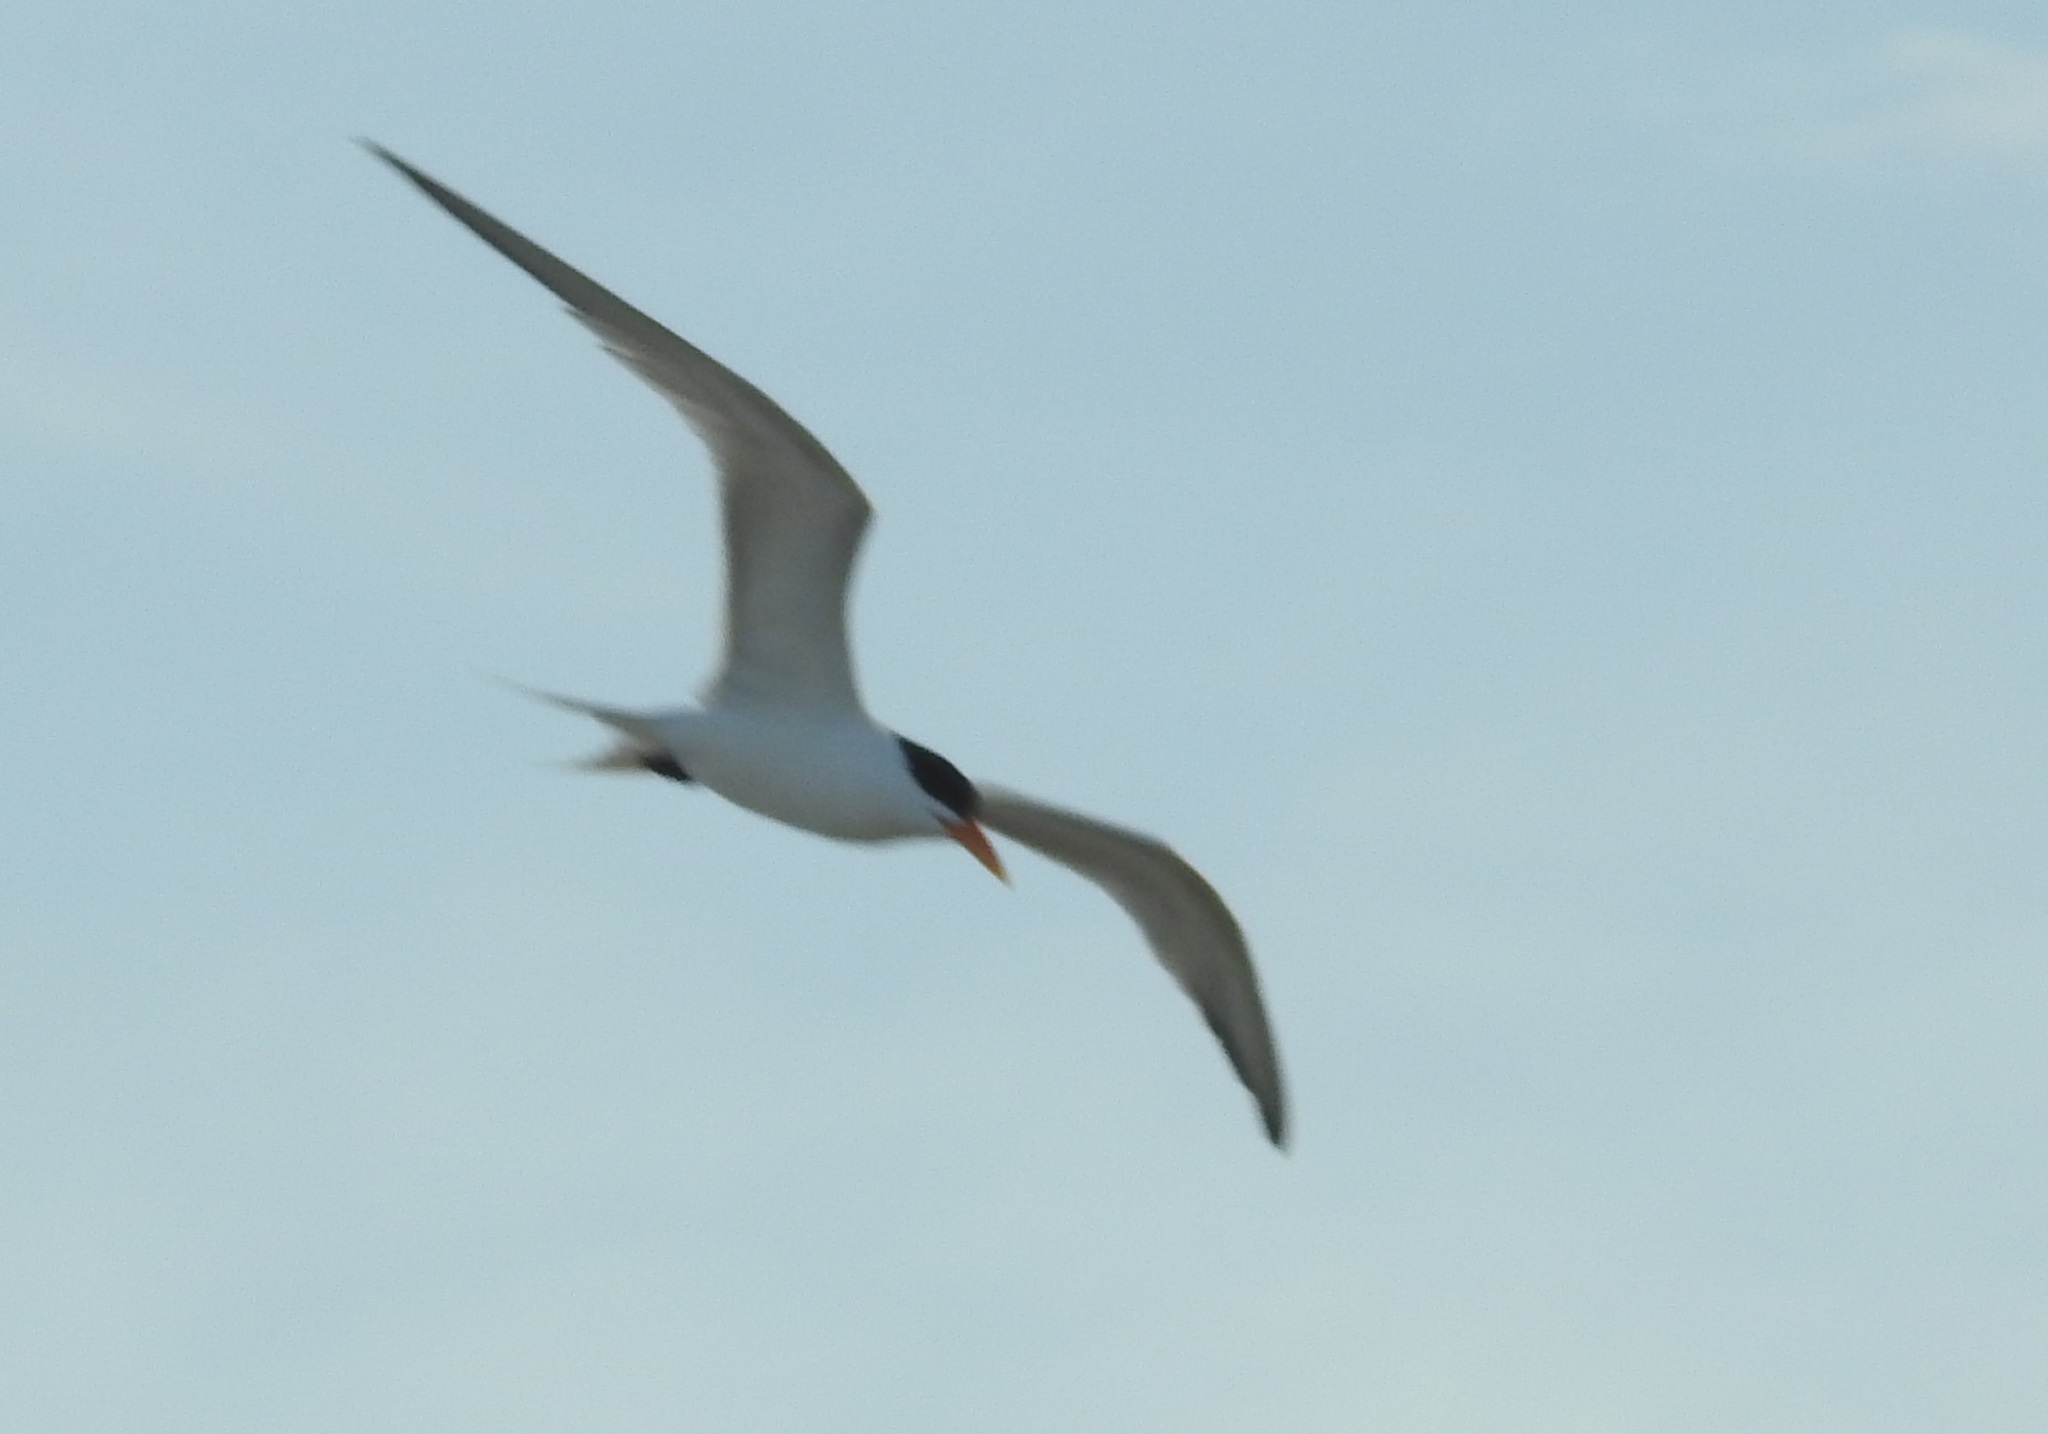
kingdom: Animalia
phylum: Chordata
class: Aves
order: Charadriiformes
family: Laridae
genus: Thalasseus
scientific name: Thalasseus bengalensis
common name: Lesser crested tern
